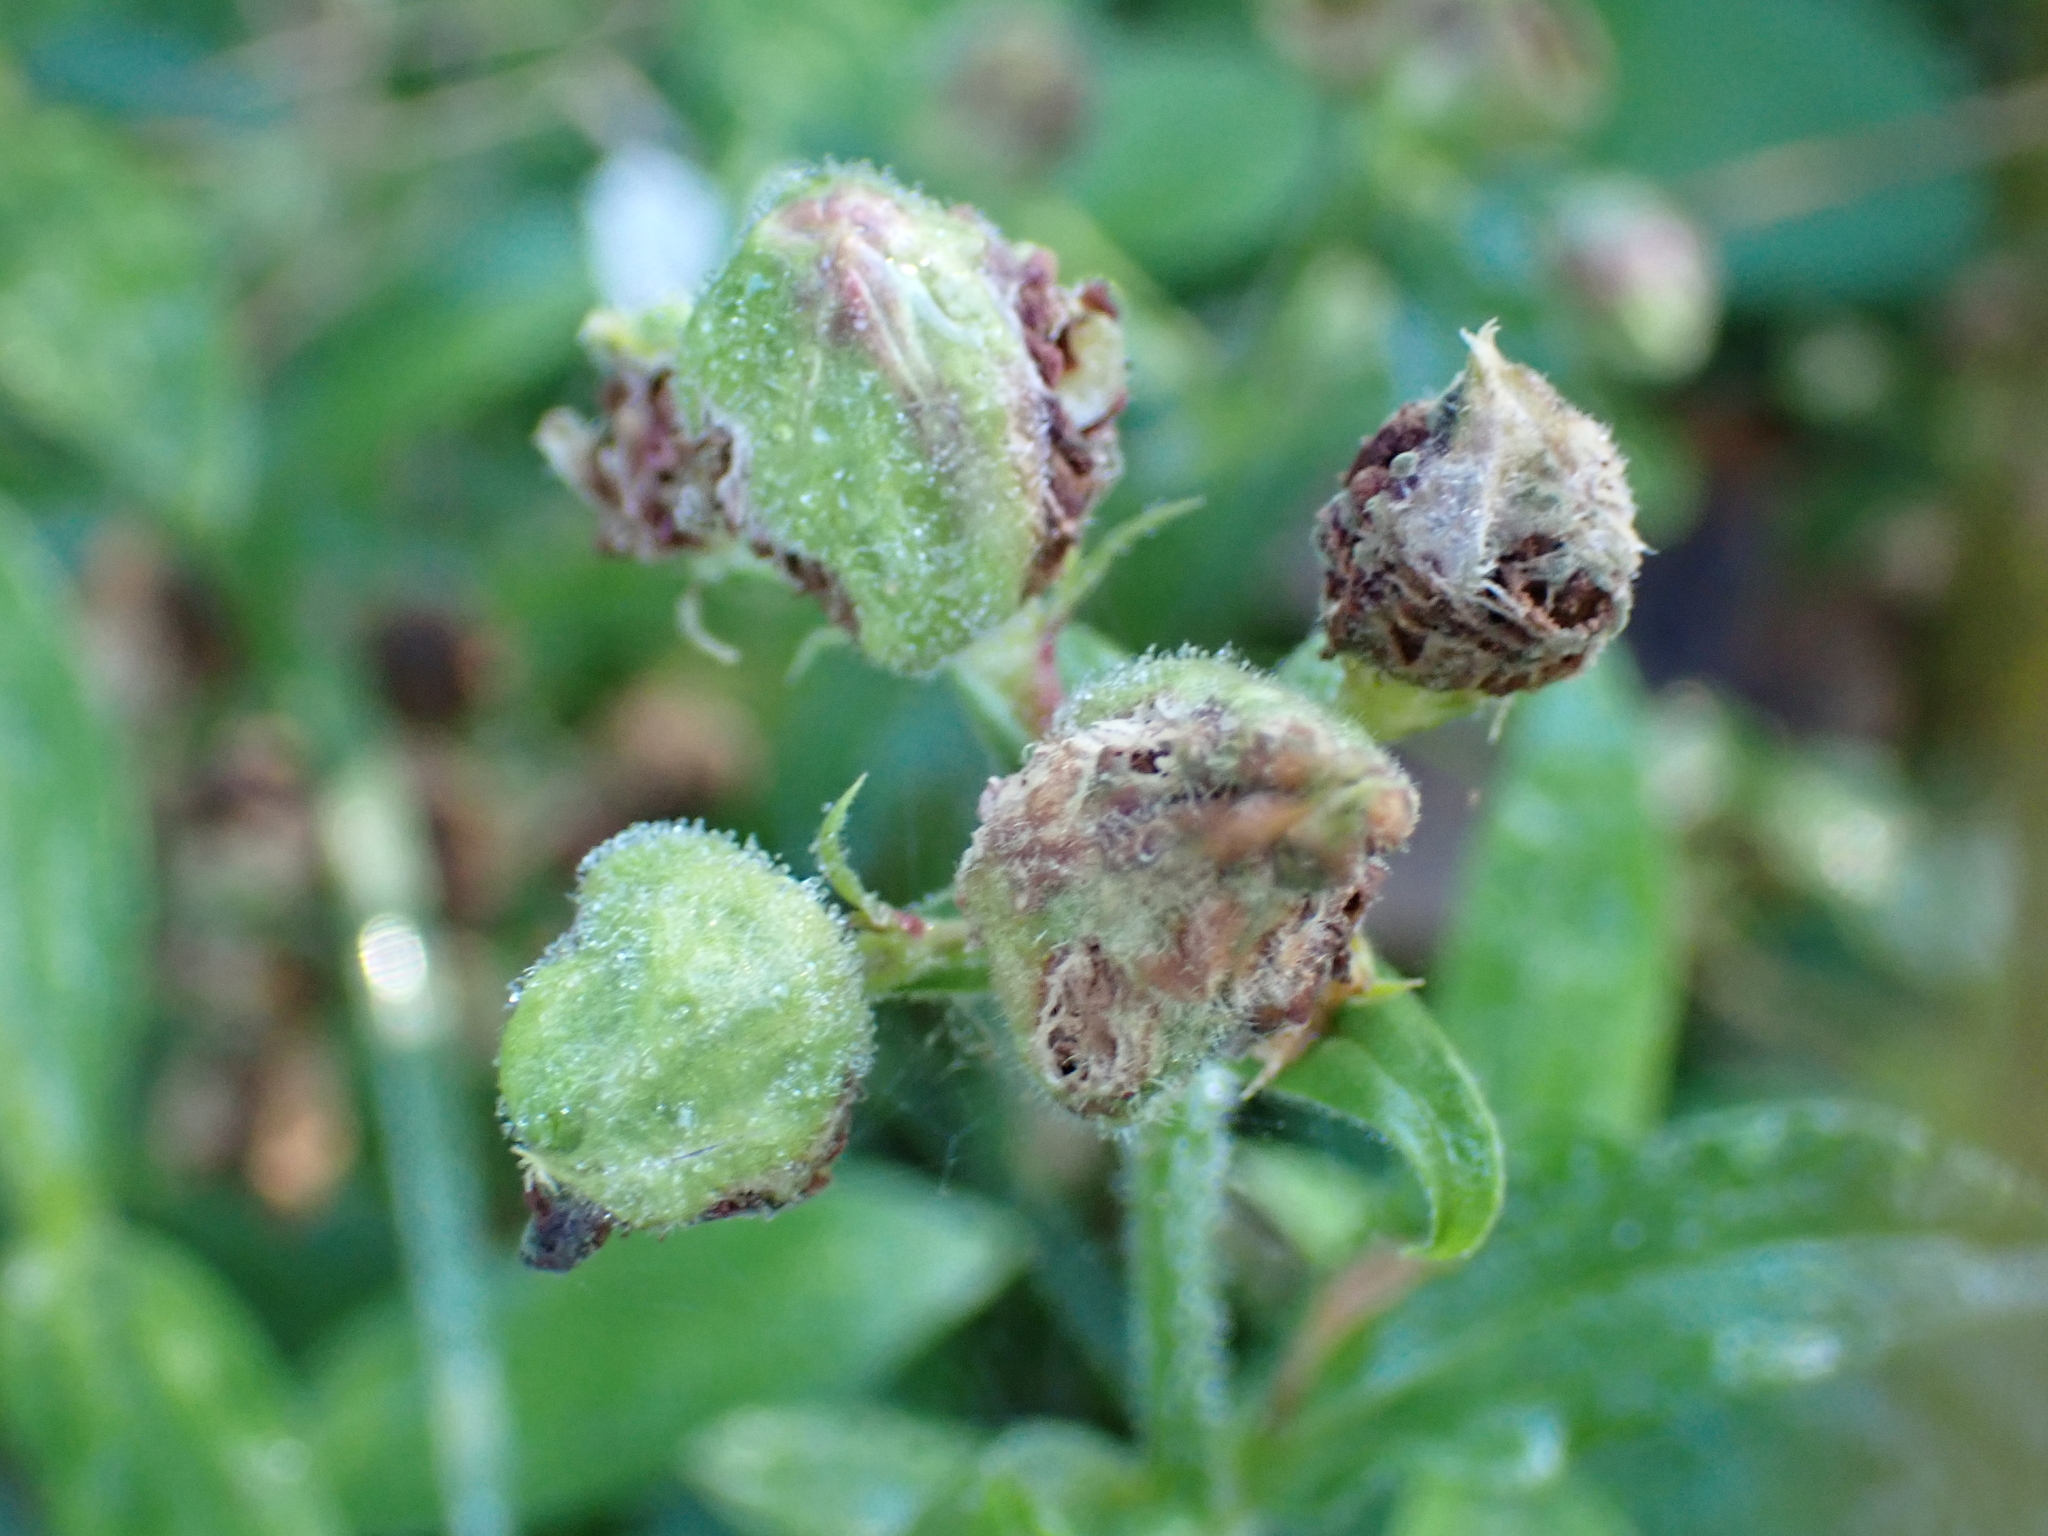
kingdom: Fungi
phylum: Basidiomycota
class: Ustilaginomycetes
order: Urocystidales
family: Glomosporiaceae
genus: Thecaphora
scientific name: Thecaphora melandrii
